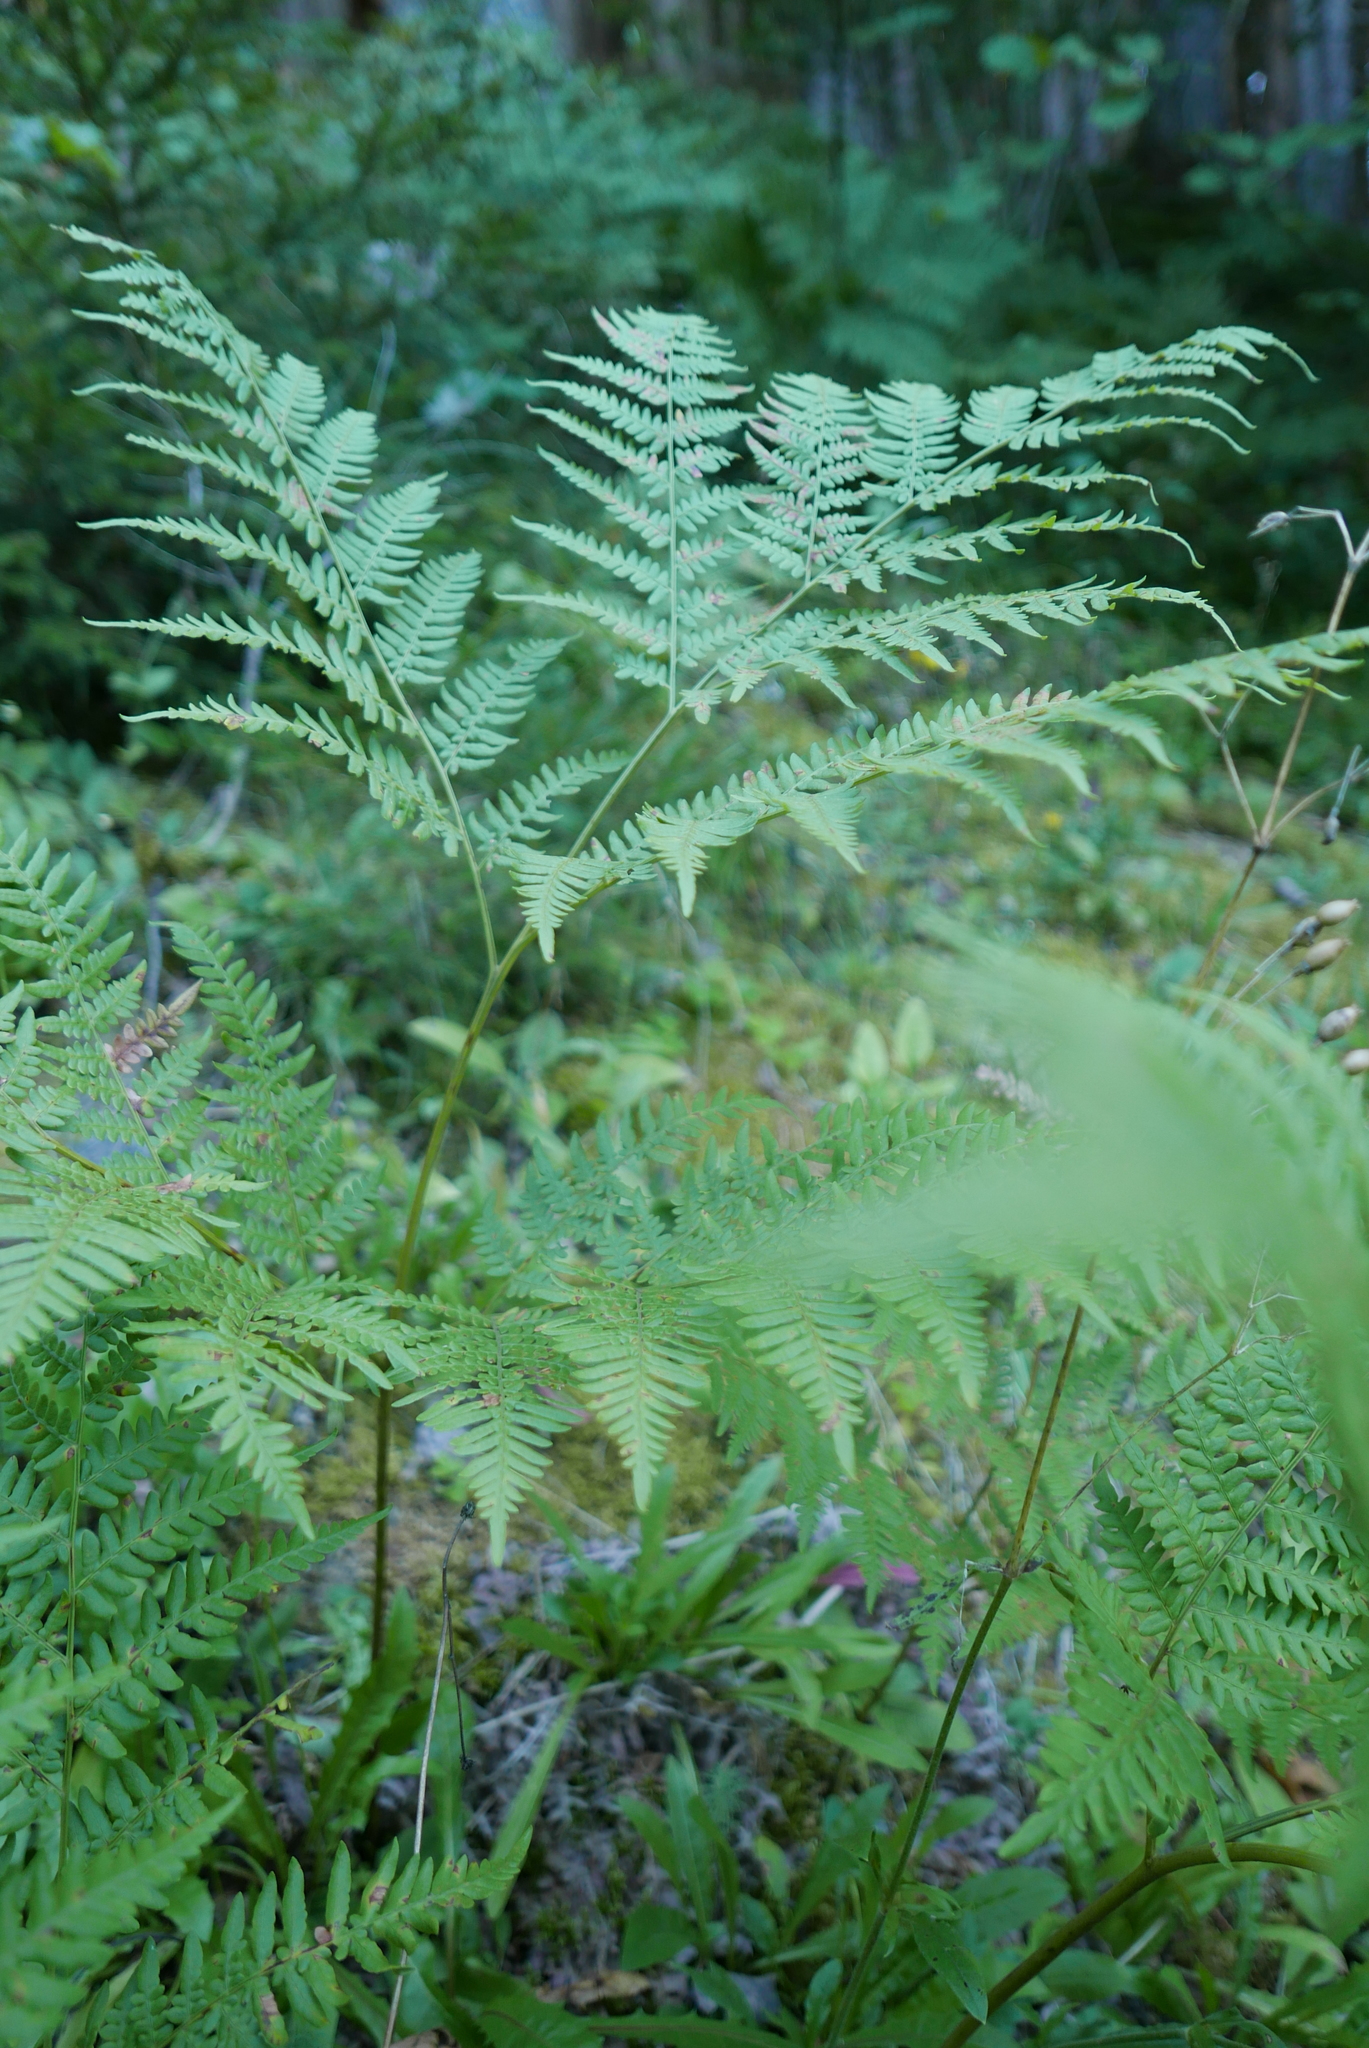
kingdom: Plantae
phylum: Tracheophyta
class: Polypodiopsida
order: Polypodiales
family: Dennstaedtiaceae
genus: Pteridium
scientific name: Pteridium aquilinum
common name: Bracken
